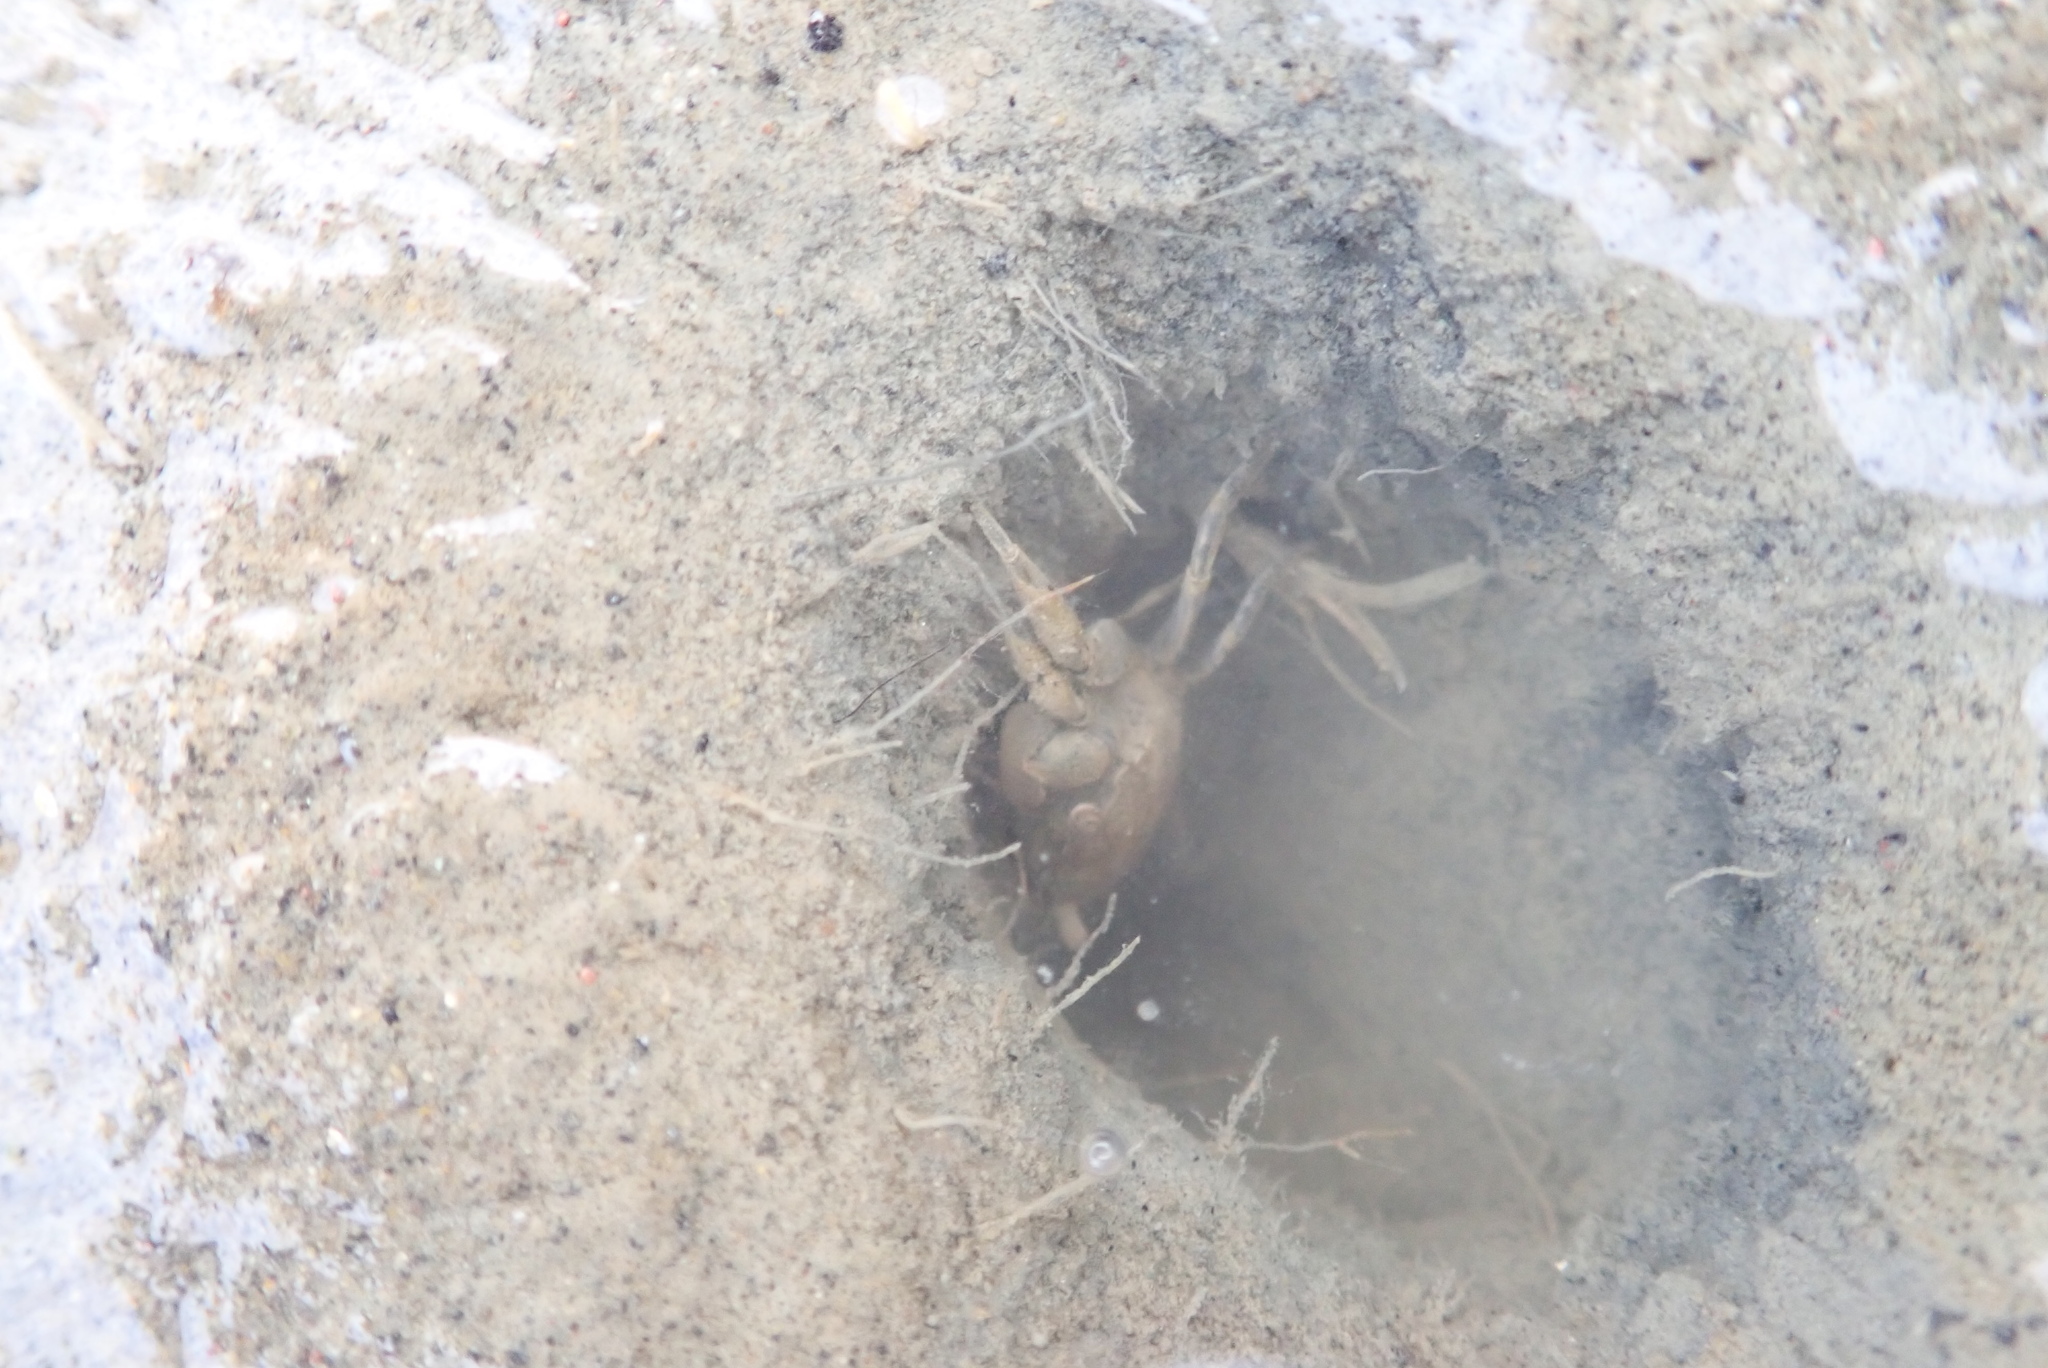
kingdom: Animalia
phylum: Arthropoda
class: Malacostraca
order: Decapoda
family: Varunidae
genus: Austrohelice
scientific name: Austrohelice crassa
